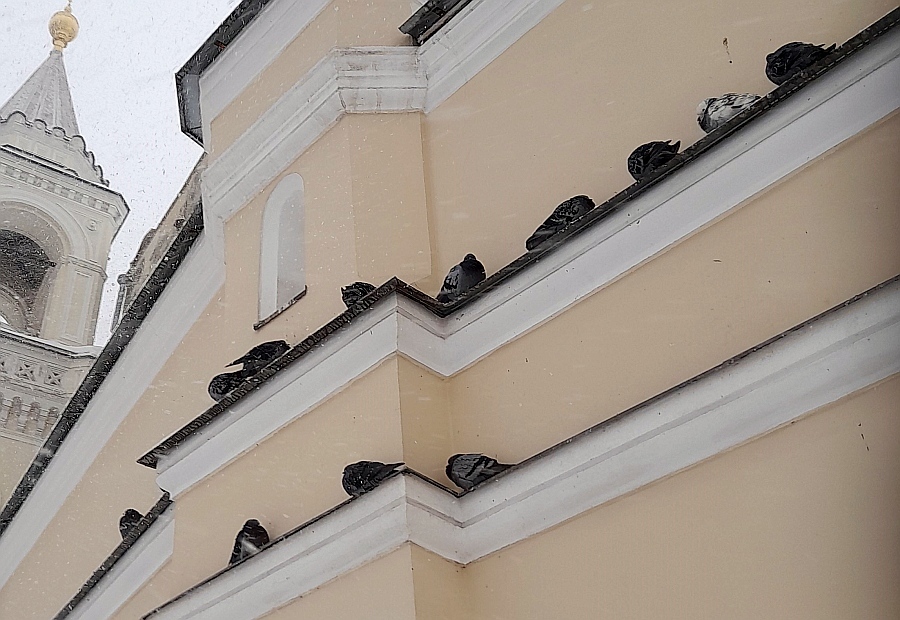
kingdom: Animalia
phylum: Chordata
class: Aves
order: Columbiformes
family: Columbidae
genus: Columba
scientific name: Columba livia
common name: Rock pigeon
